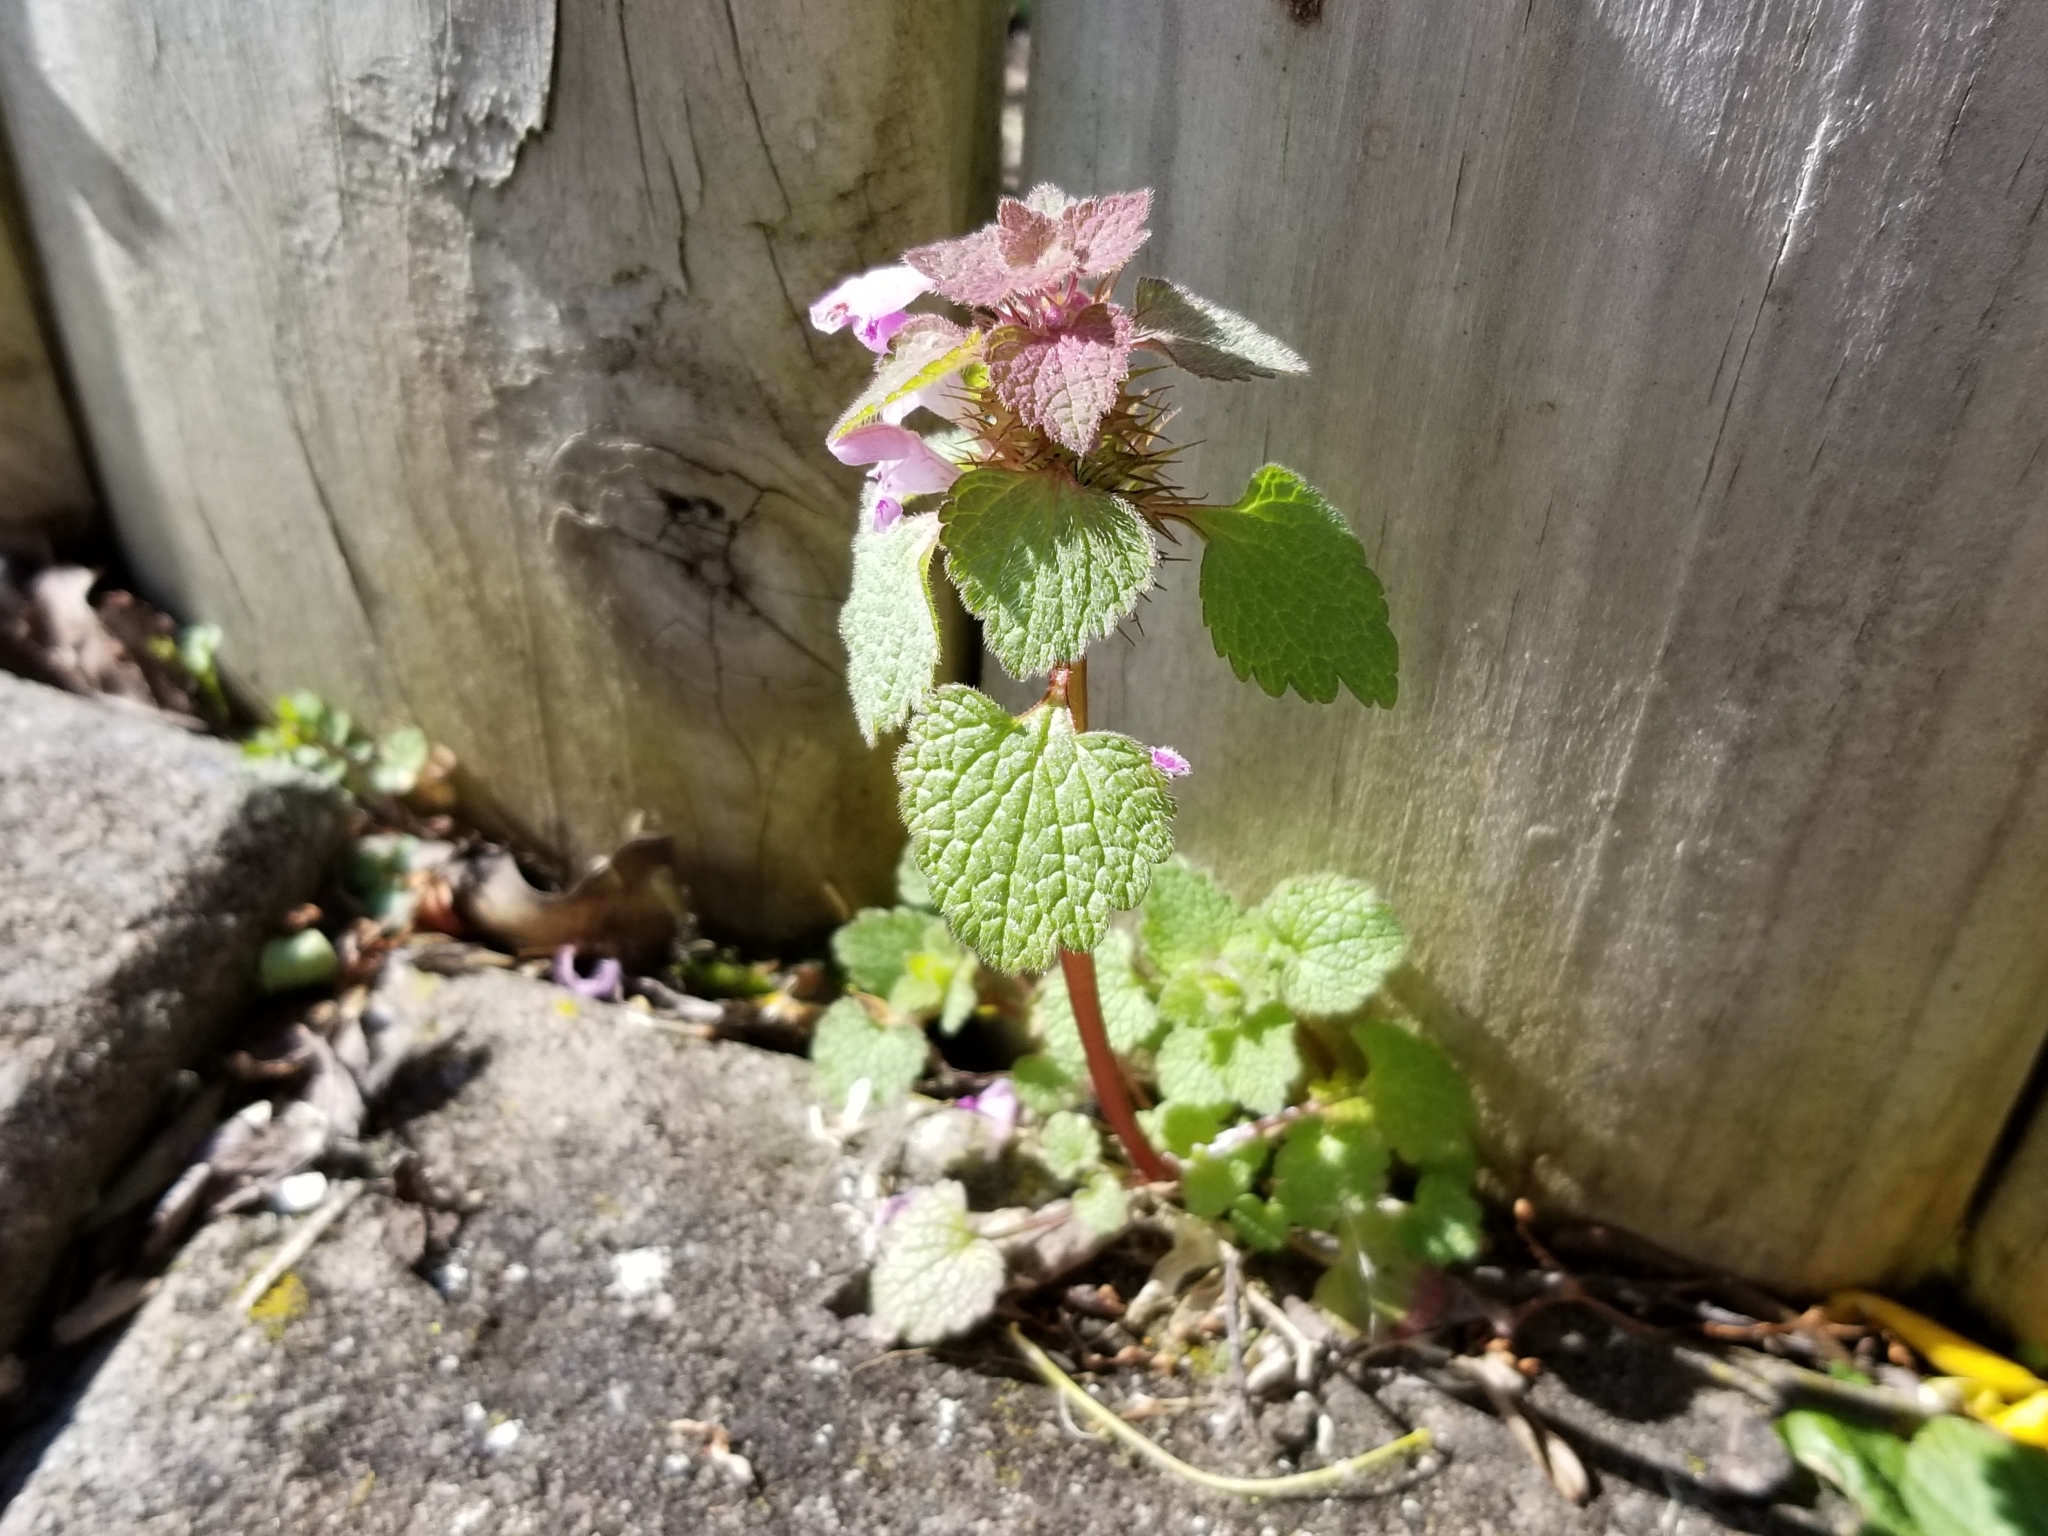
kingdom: Plantae
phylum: Tracheophyta
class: Magnoliopsida
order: Lamiales
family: Lamiaceae
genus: Lamium
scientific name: Lamium purpureum
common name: Red dead-nettle
